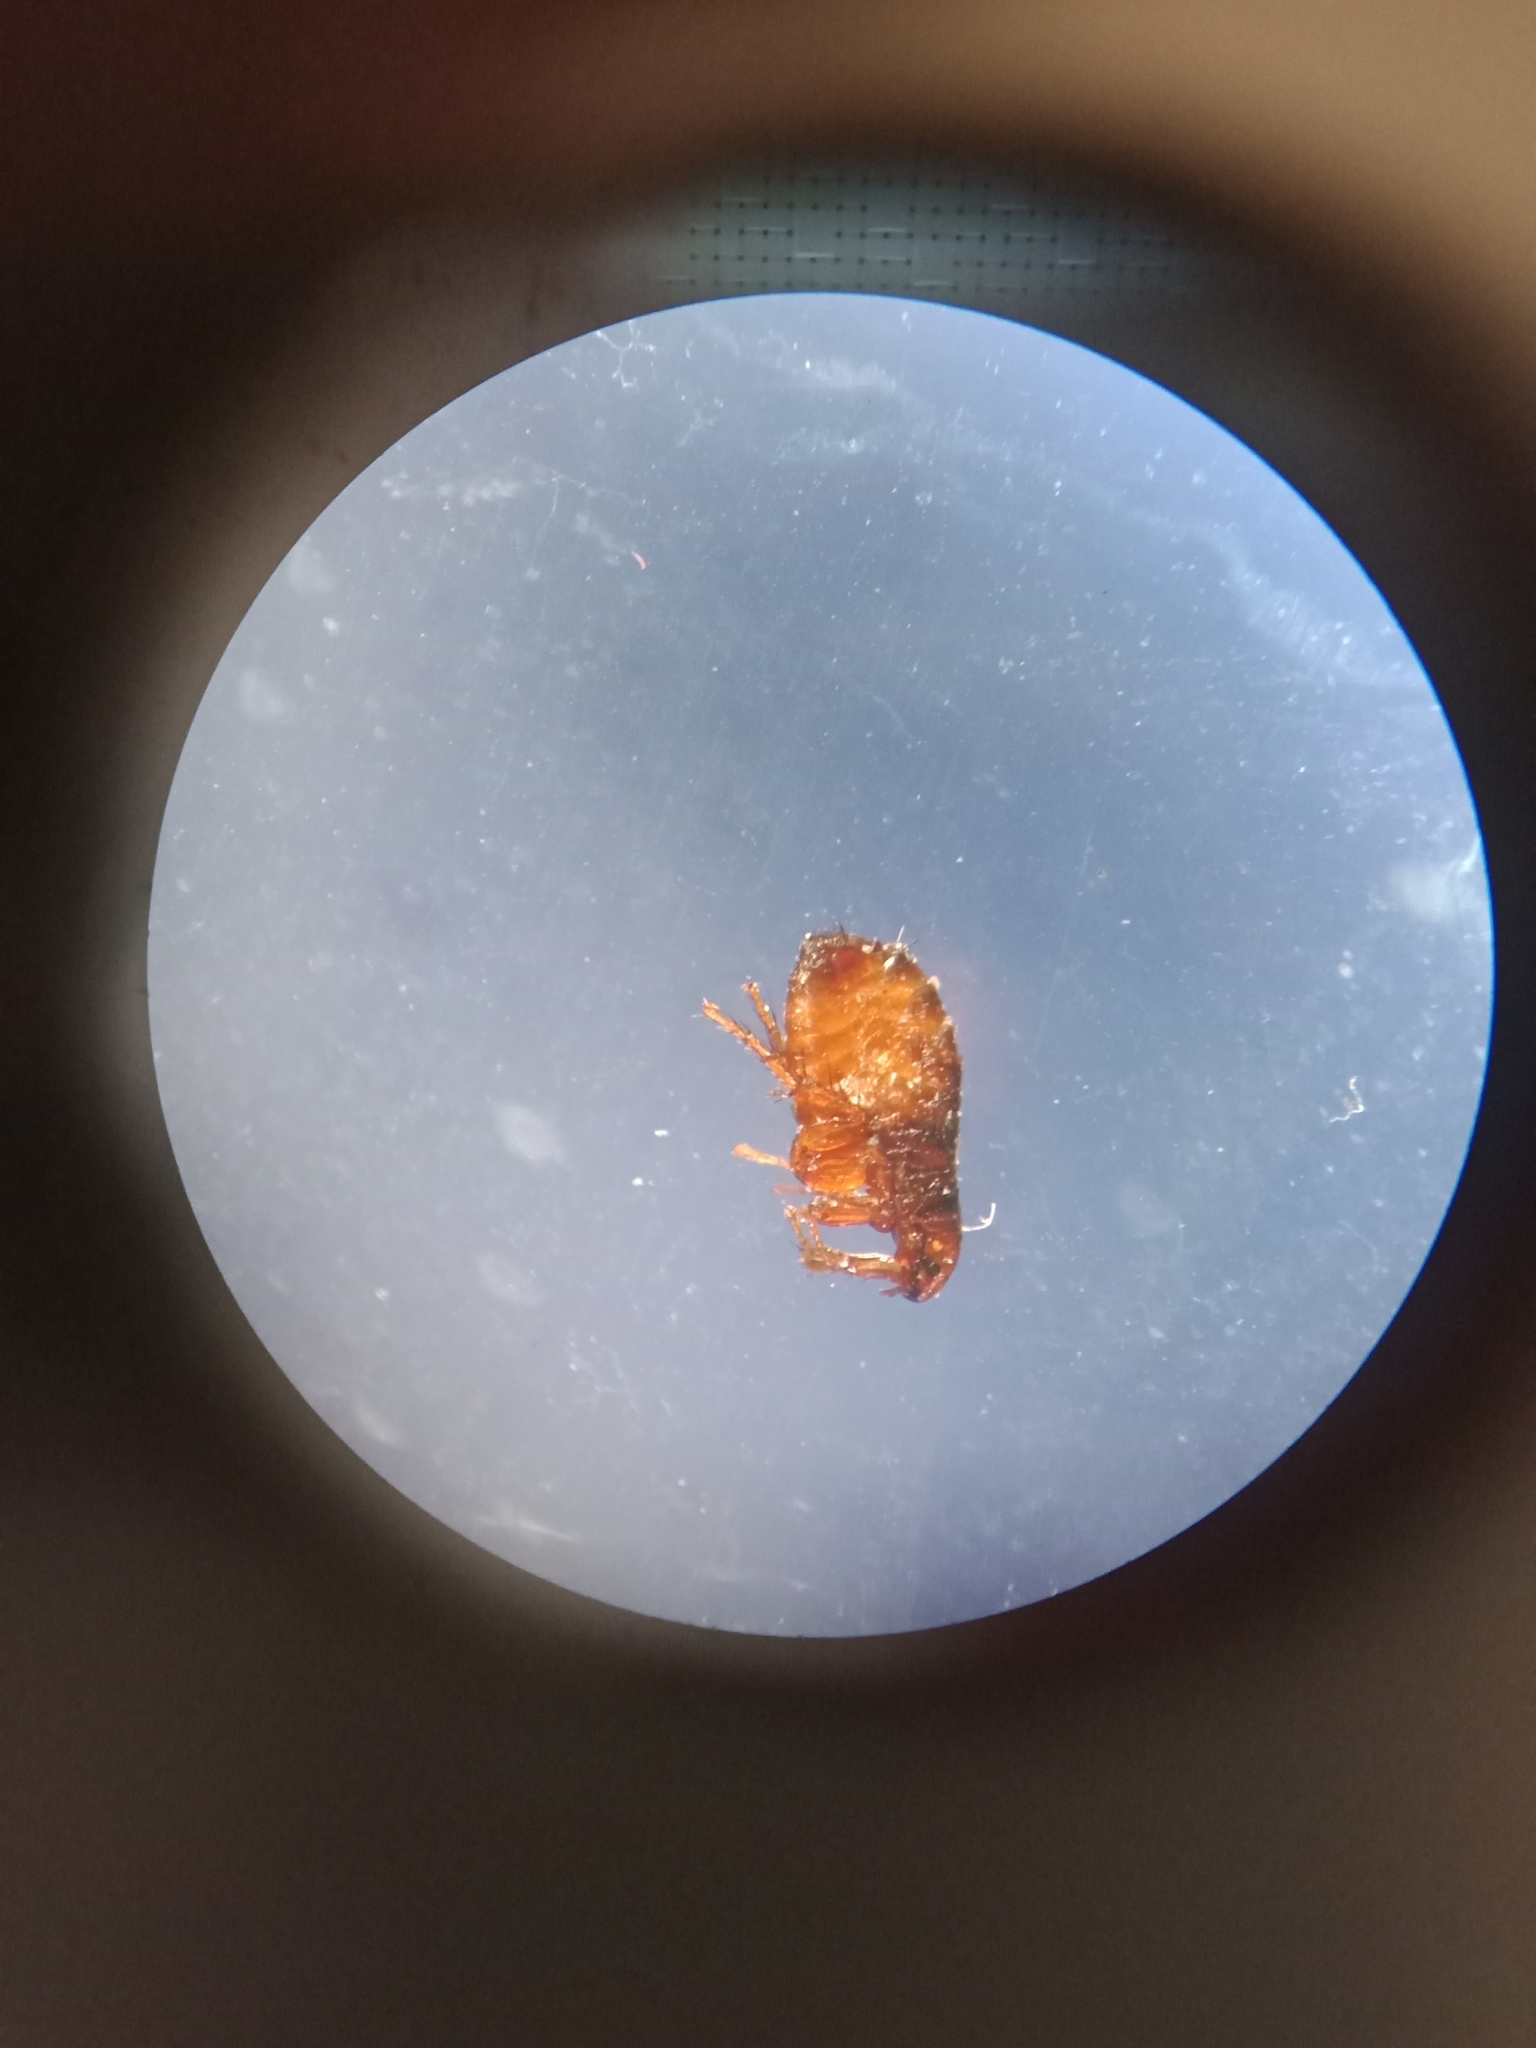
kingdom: Animalia
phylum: Arthropoda
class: Insecta
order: Siphonaptera
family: Pulicidae
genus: Ctenocephalides
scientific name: Ctenocephalides canis
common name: Flea
